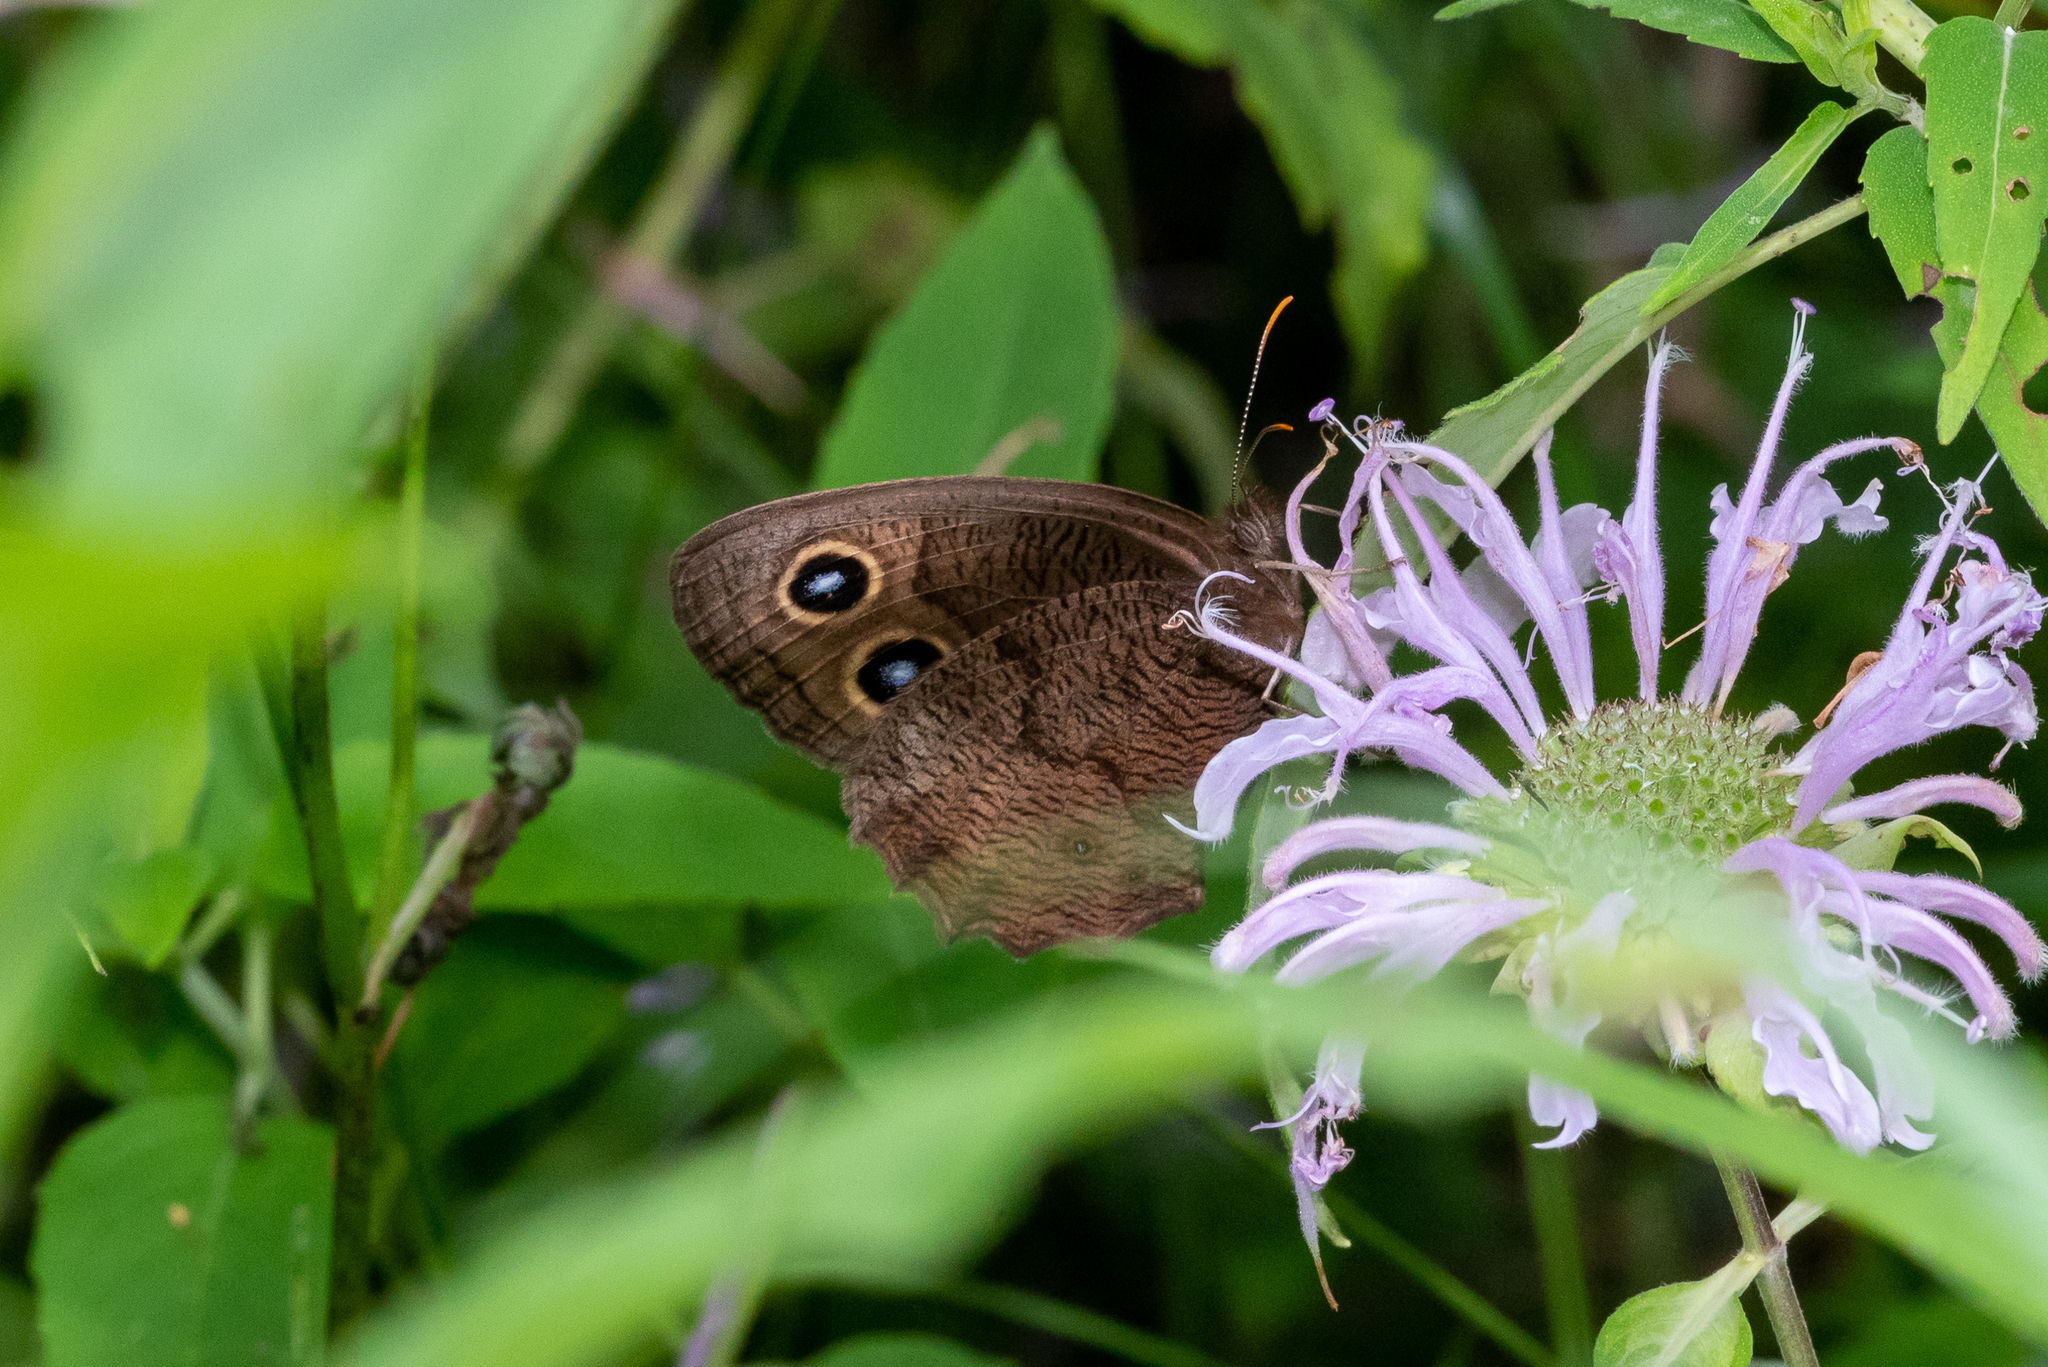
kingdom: Animalia
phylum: Arthropoda
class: Insecta
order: Lepidoptera
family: Nymphalidae
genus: Cercyonis
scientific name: Cercyonis pegala
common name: Common wood-nymph
